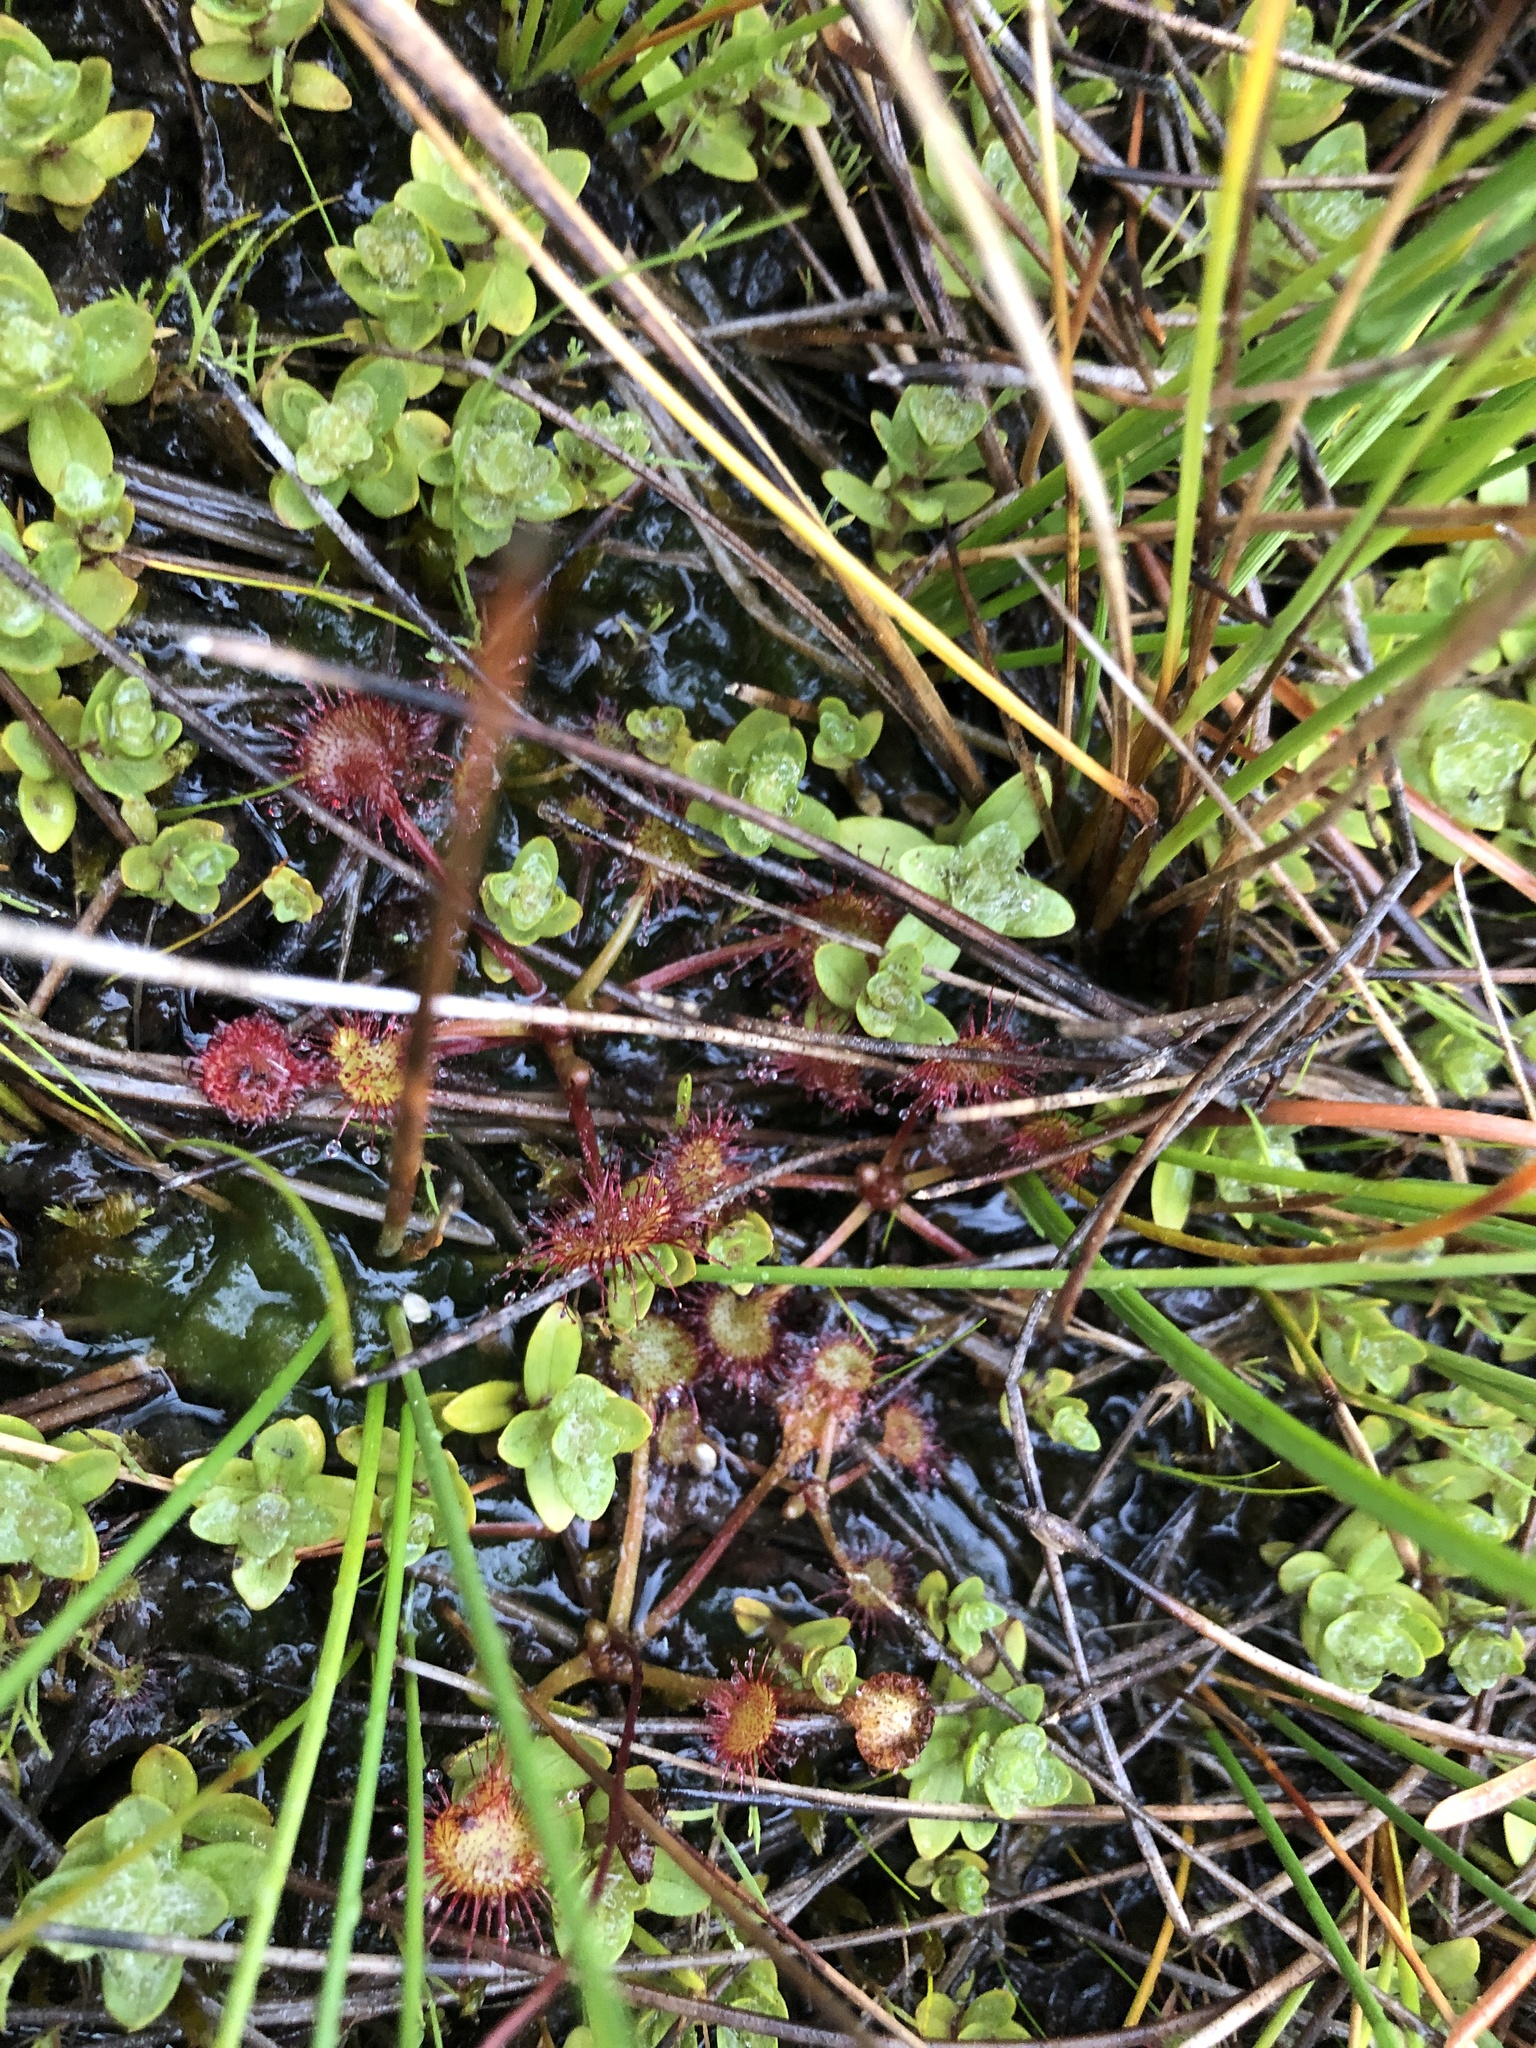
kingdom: Plantae
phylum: Tracheophyta
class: Magnoliopsida
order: Caryophyllales
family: Droseraceae
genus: Drosera
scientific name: Drosera rotundifolia
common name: Round-leaved sundew
